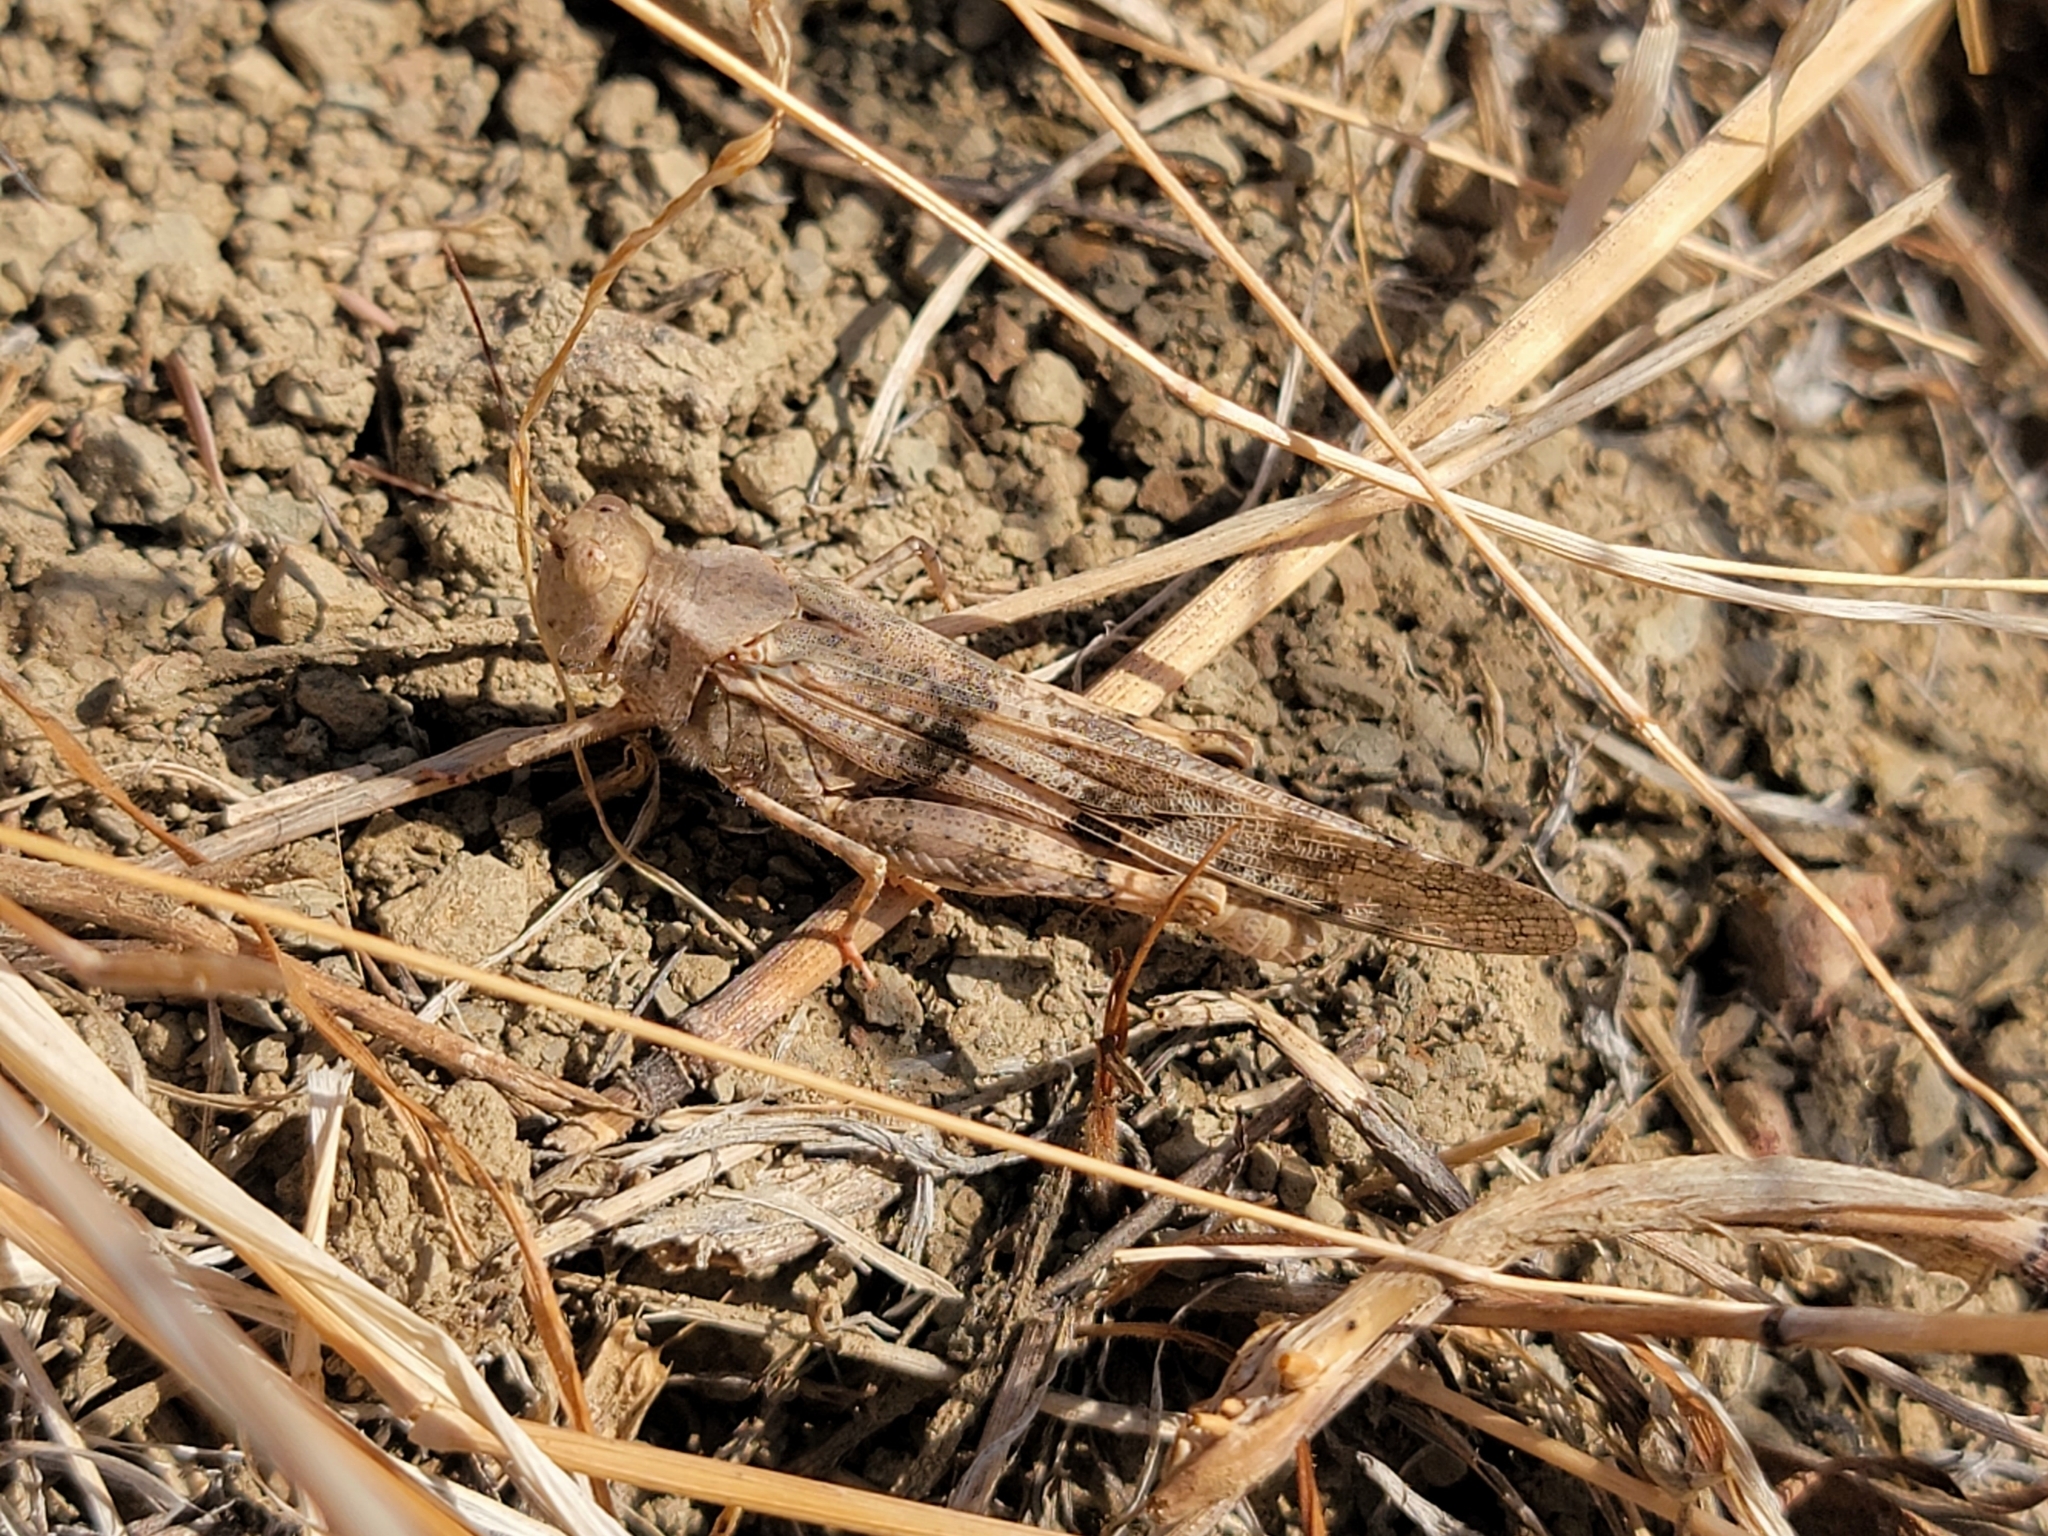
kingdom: Animalia
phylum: Arthropoda
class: Insecta
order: Orthoptera
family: Acrididae
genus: Trimerotropis
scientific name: Trimerotropis pallidipennis
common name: Pallid-winged grasshopper
